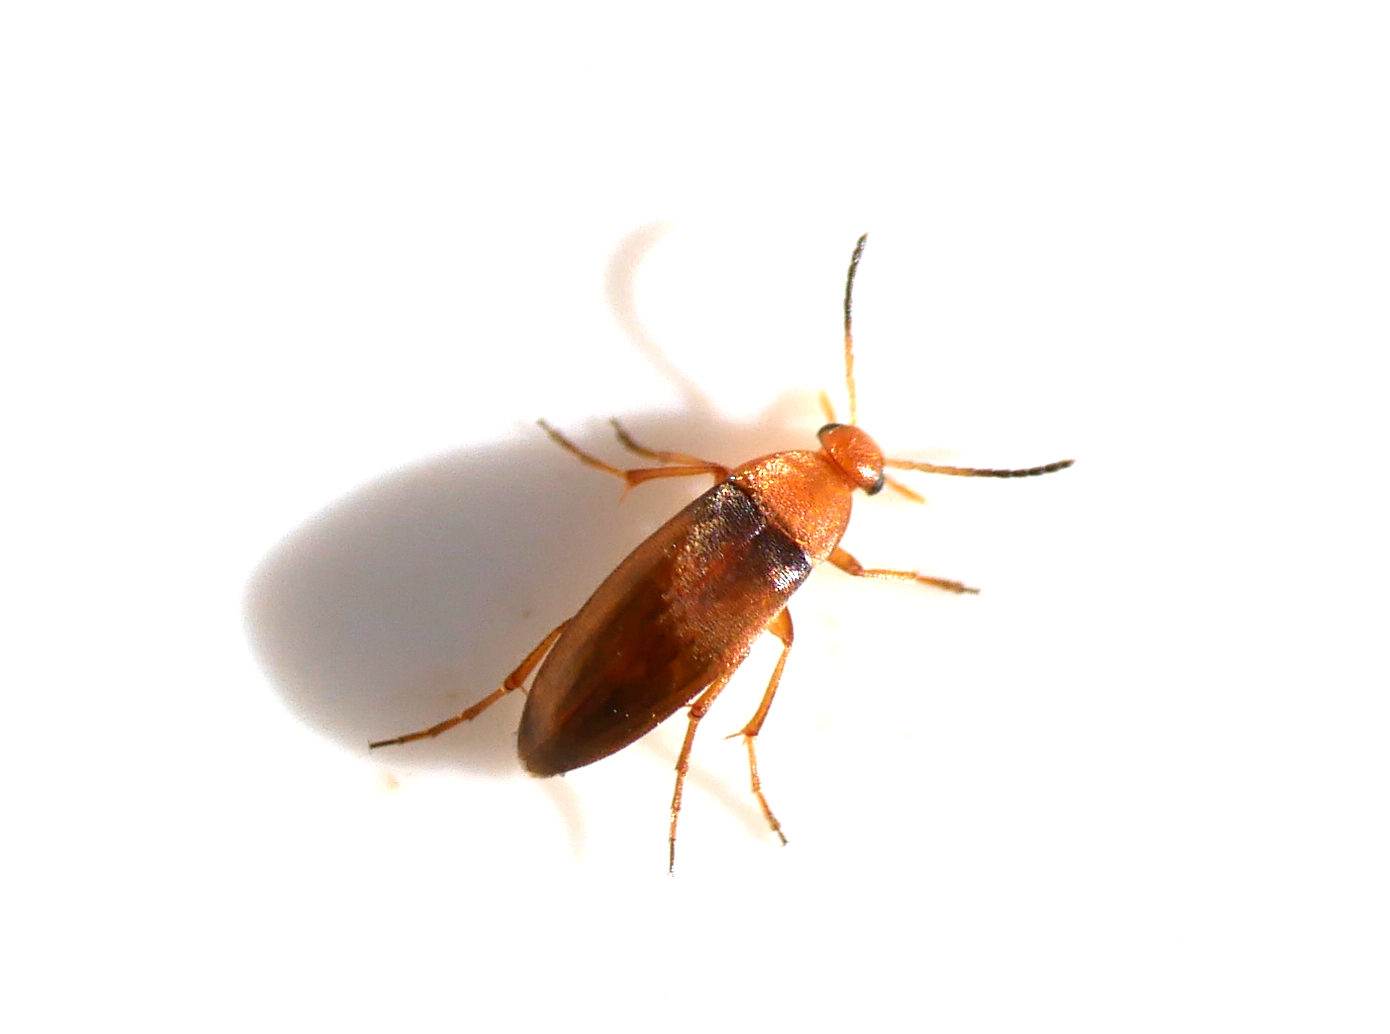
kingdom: Animalia
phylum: Arthropoda
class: Insecta
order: Coleoptera
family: Scraptiidae
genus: Anaspis
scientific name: Anaspis thoracica
